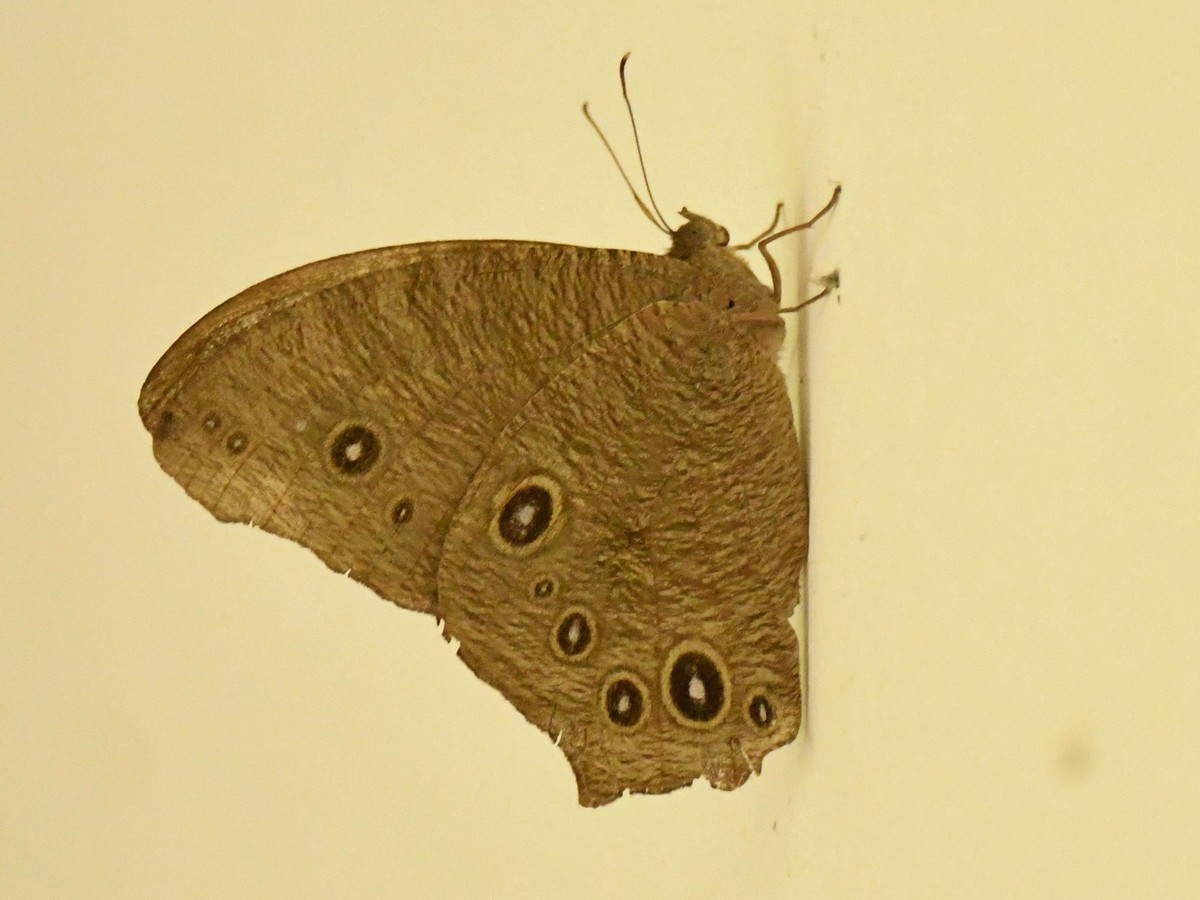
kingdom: Animalia
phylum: Arthropoda
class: Insecta
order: Lepidoptera
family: Nymphalidae
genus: Melanitis
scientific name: Melanitis leda
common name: Twilight brown
